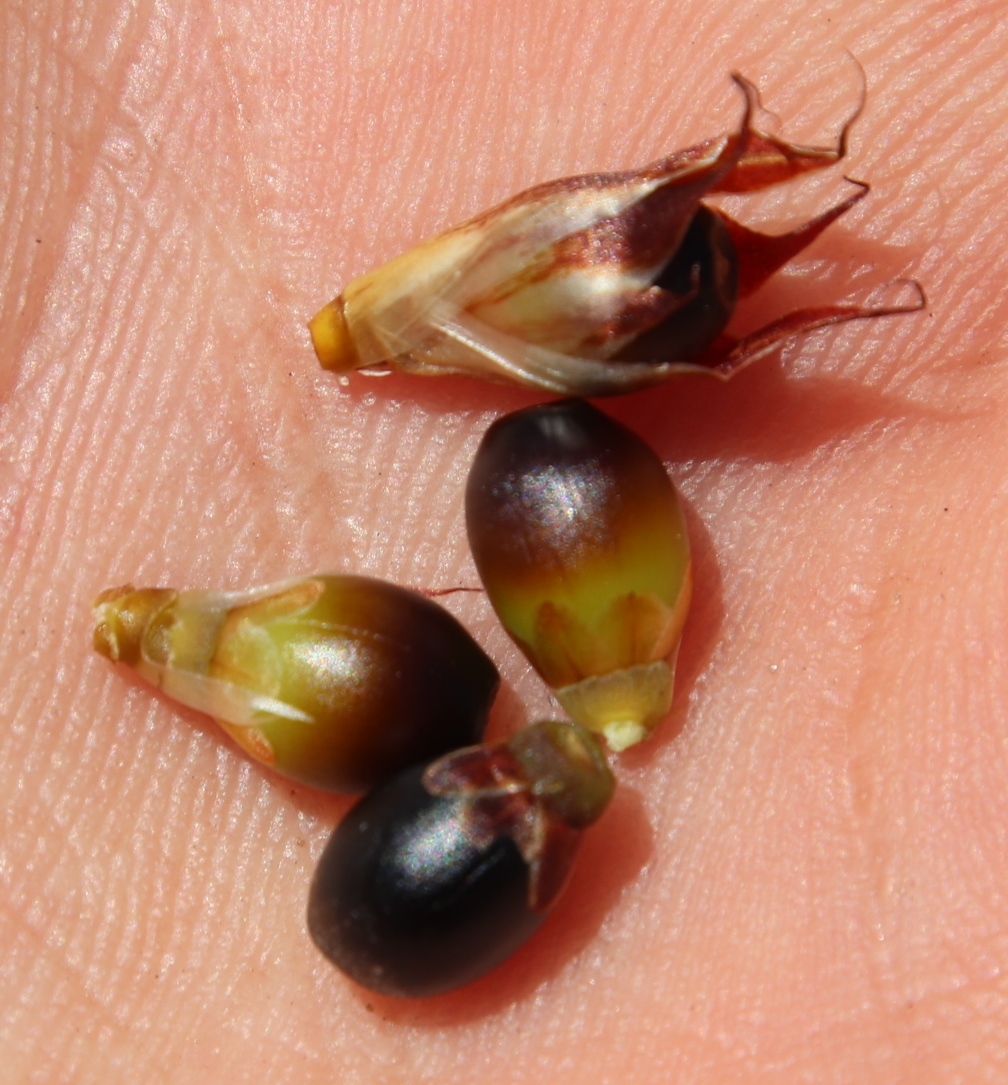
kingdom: Plantae
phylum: Tracheophyta
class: Liliopsida
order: Poales
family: Restionaceae
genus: Willdenowia
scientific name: Willdenowia teres
